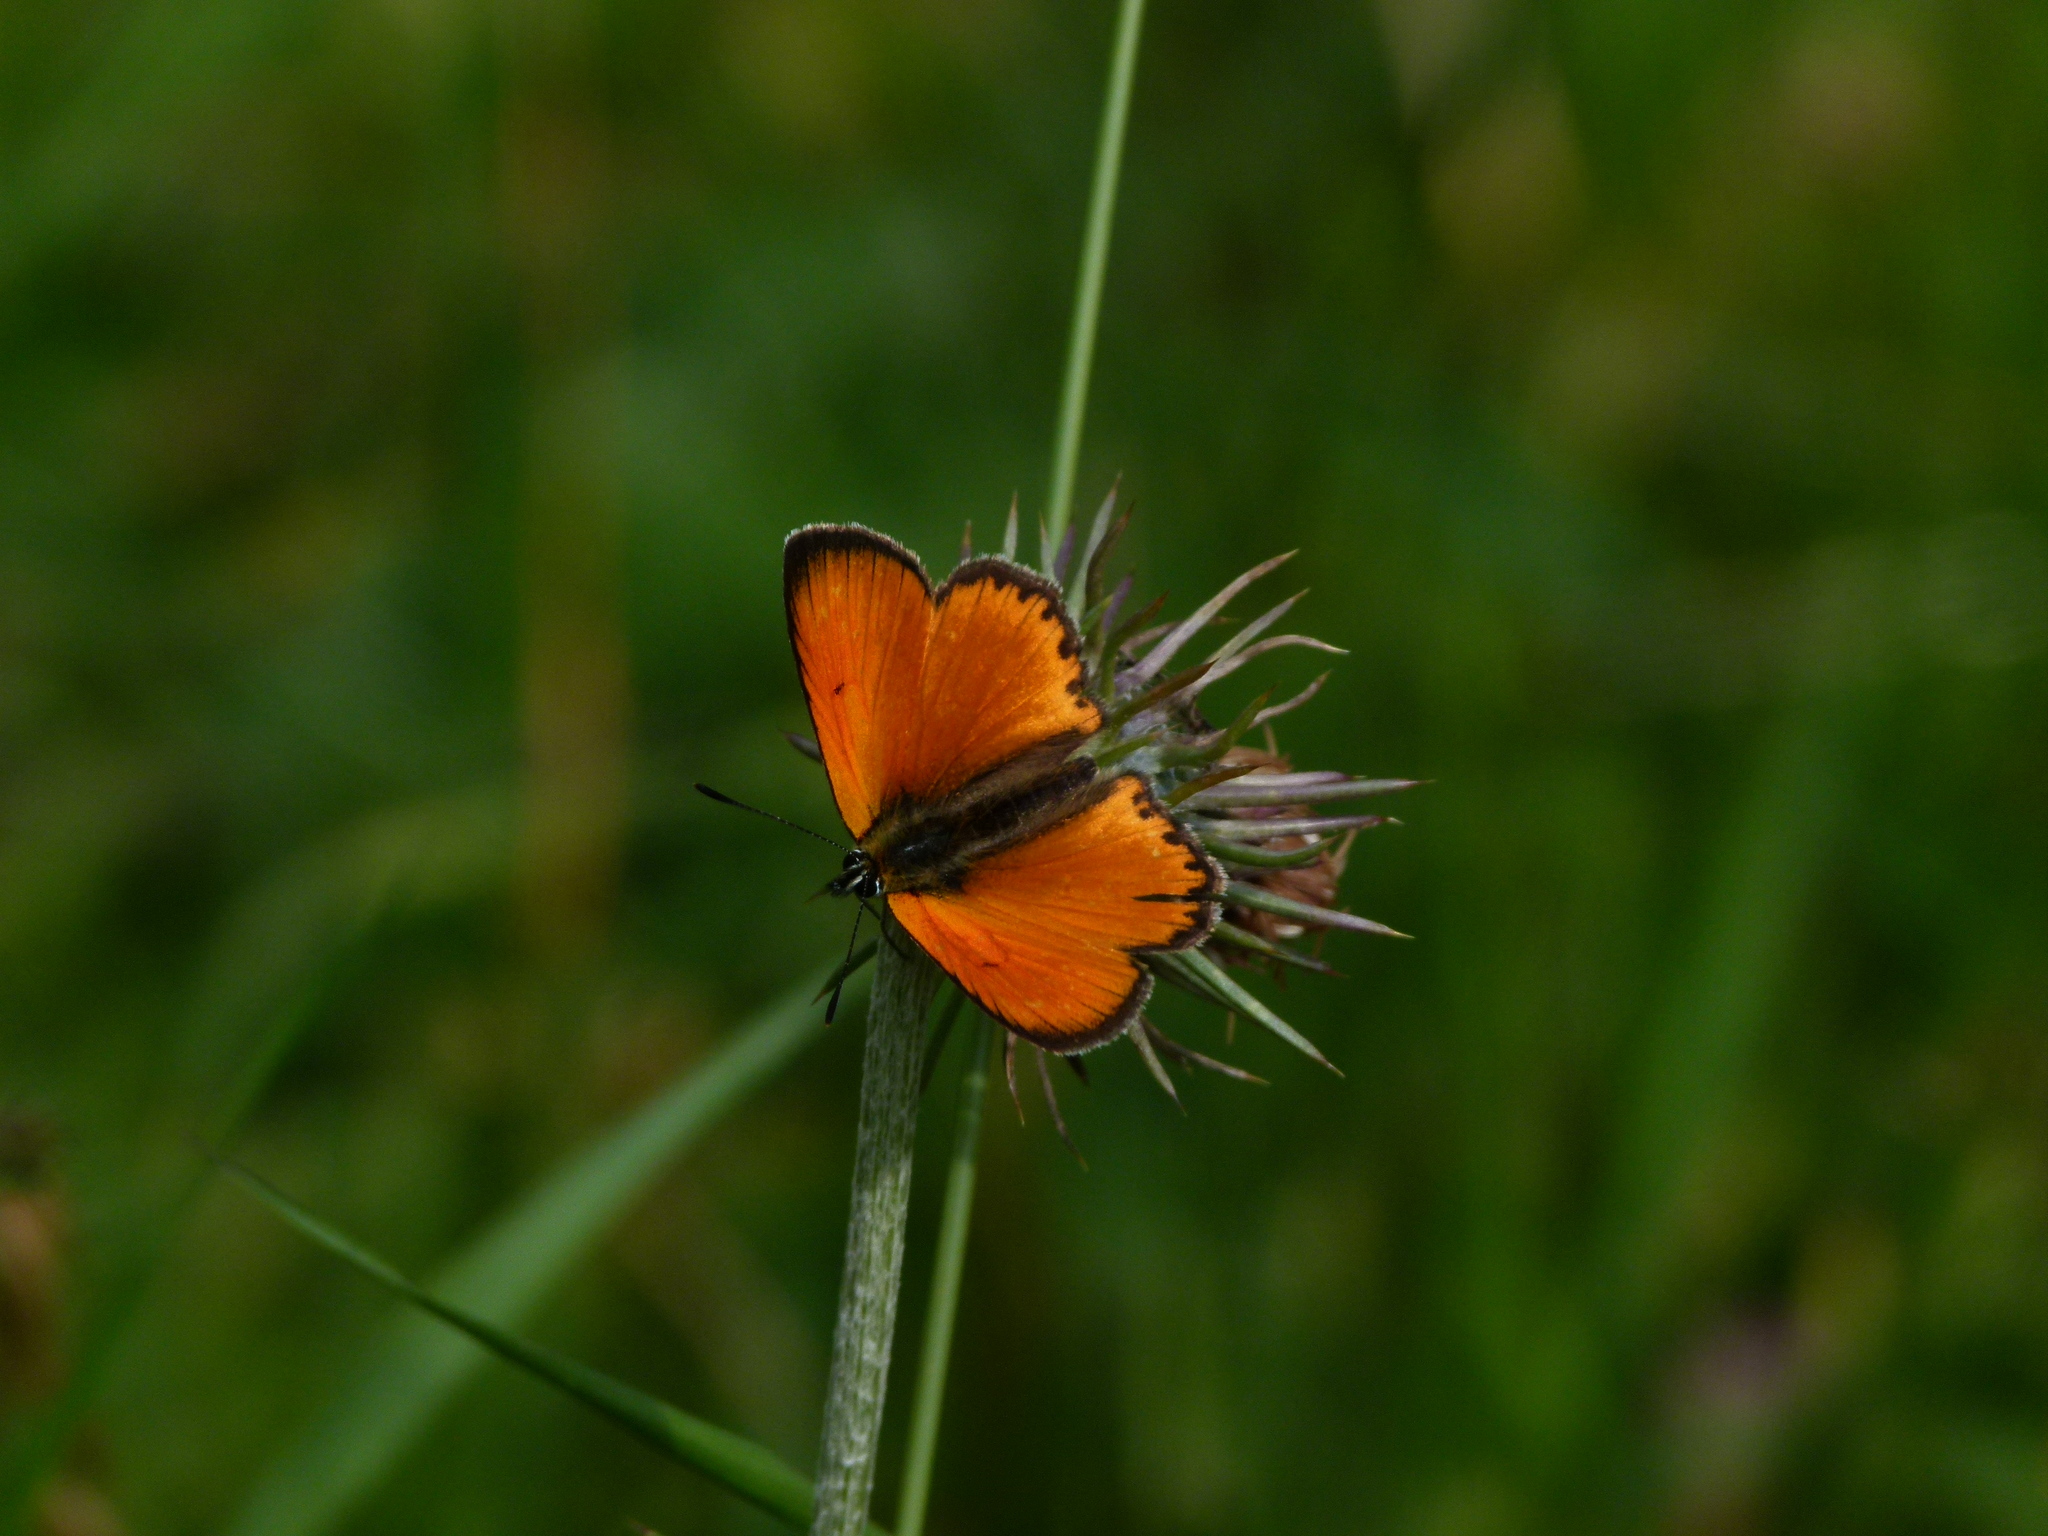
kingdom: Animalia
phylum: Arthropoda
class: Insecta
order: Lepidoptera
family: Lycaenidae
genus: Lycaena
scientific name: Lycaena virgaureae
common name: Scarce copper
